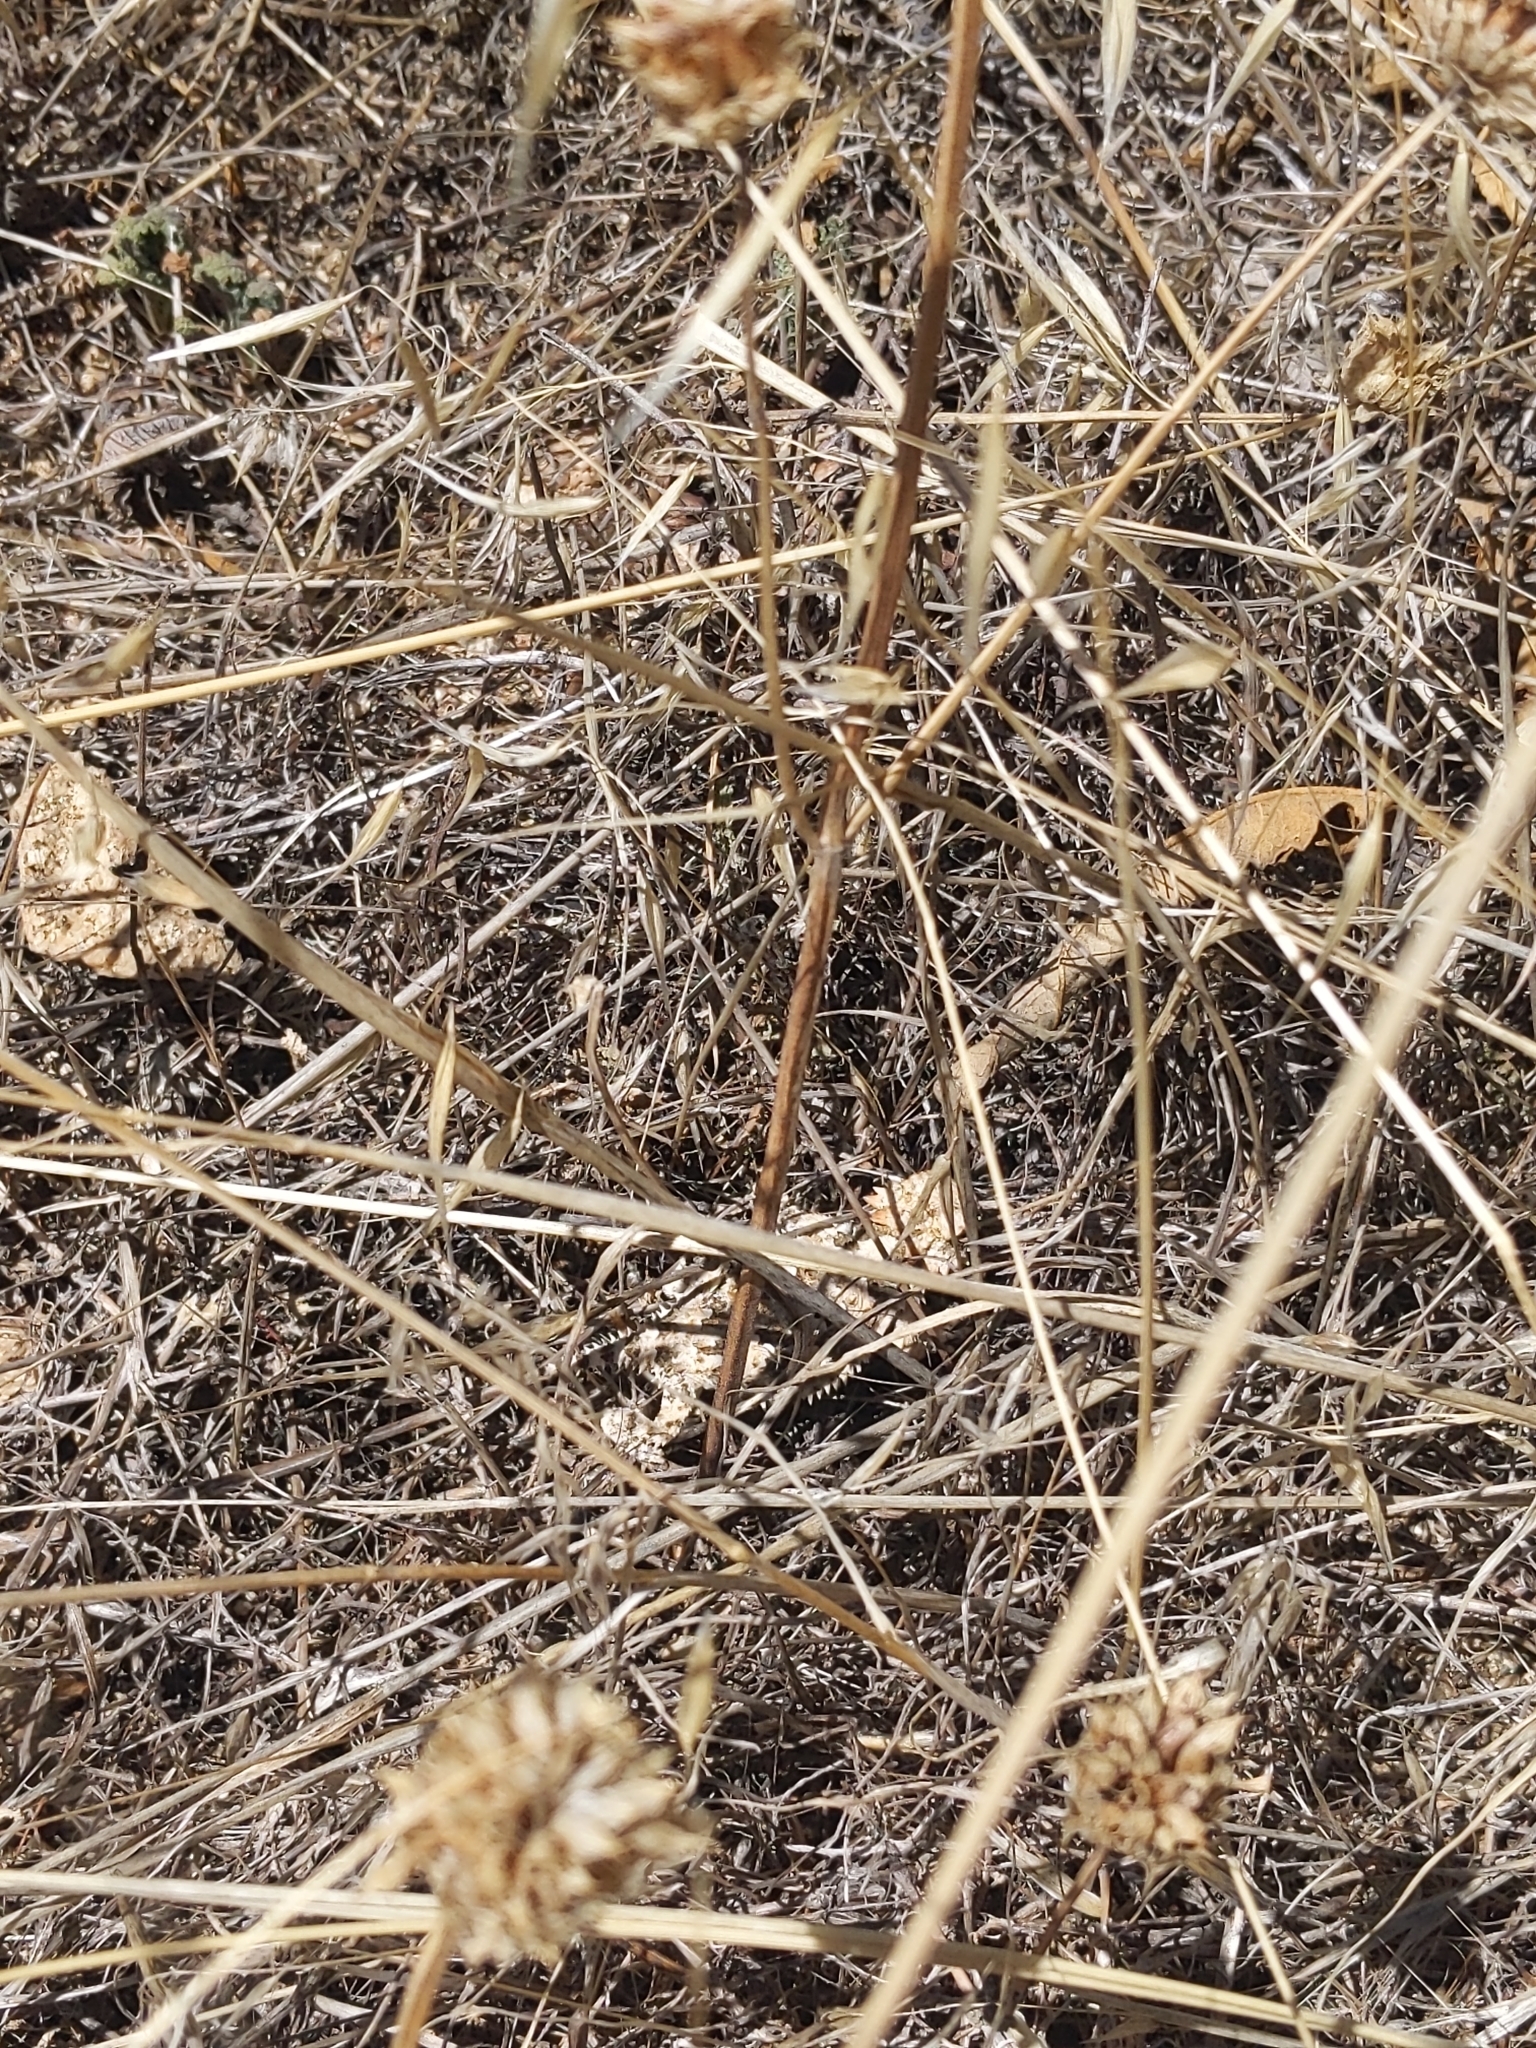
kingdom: Animalia
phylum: Chordata
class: Squamata
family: Phrynosomatidae
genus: Phrynosoma
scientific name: Phrynosoma blainvillii
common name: San diego horned lizard
